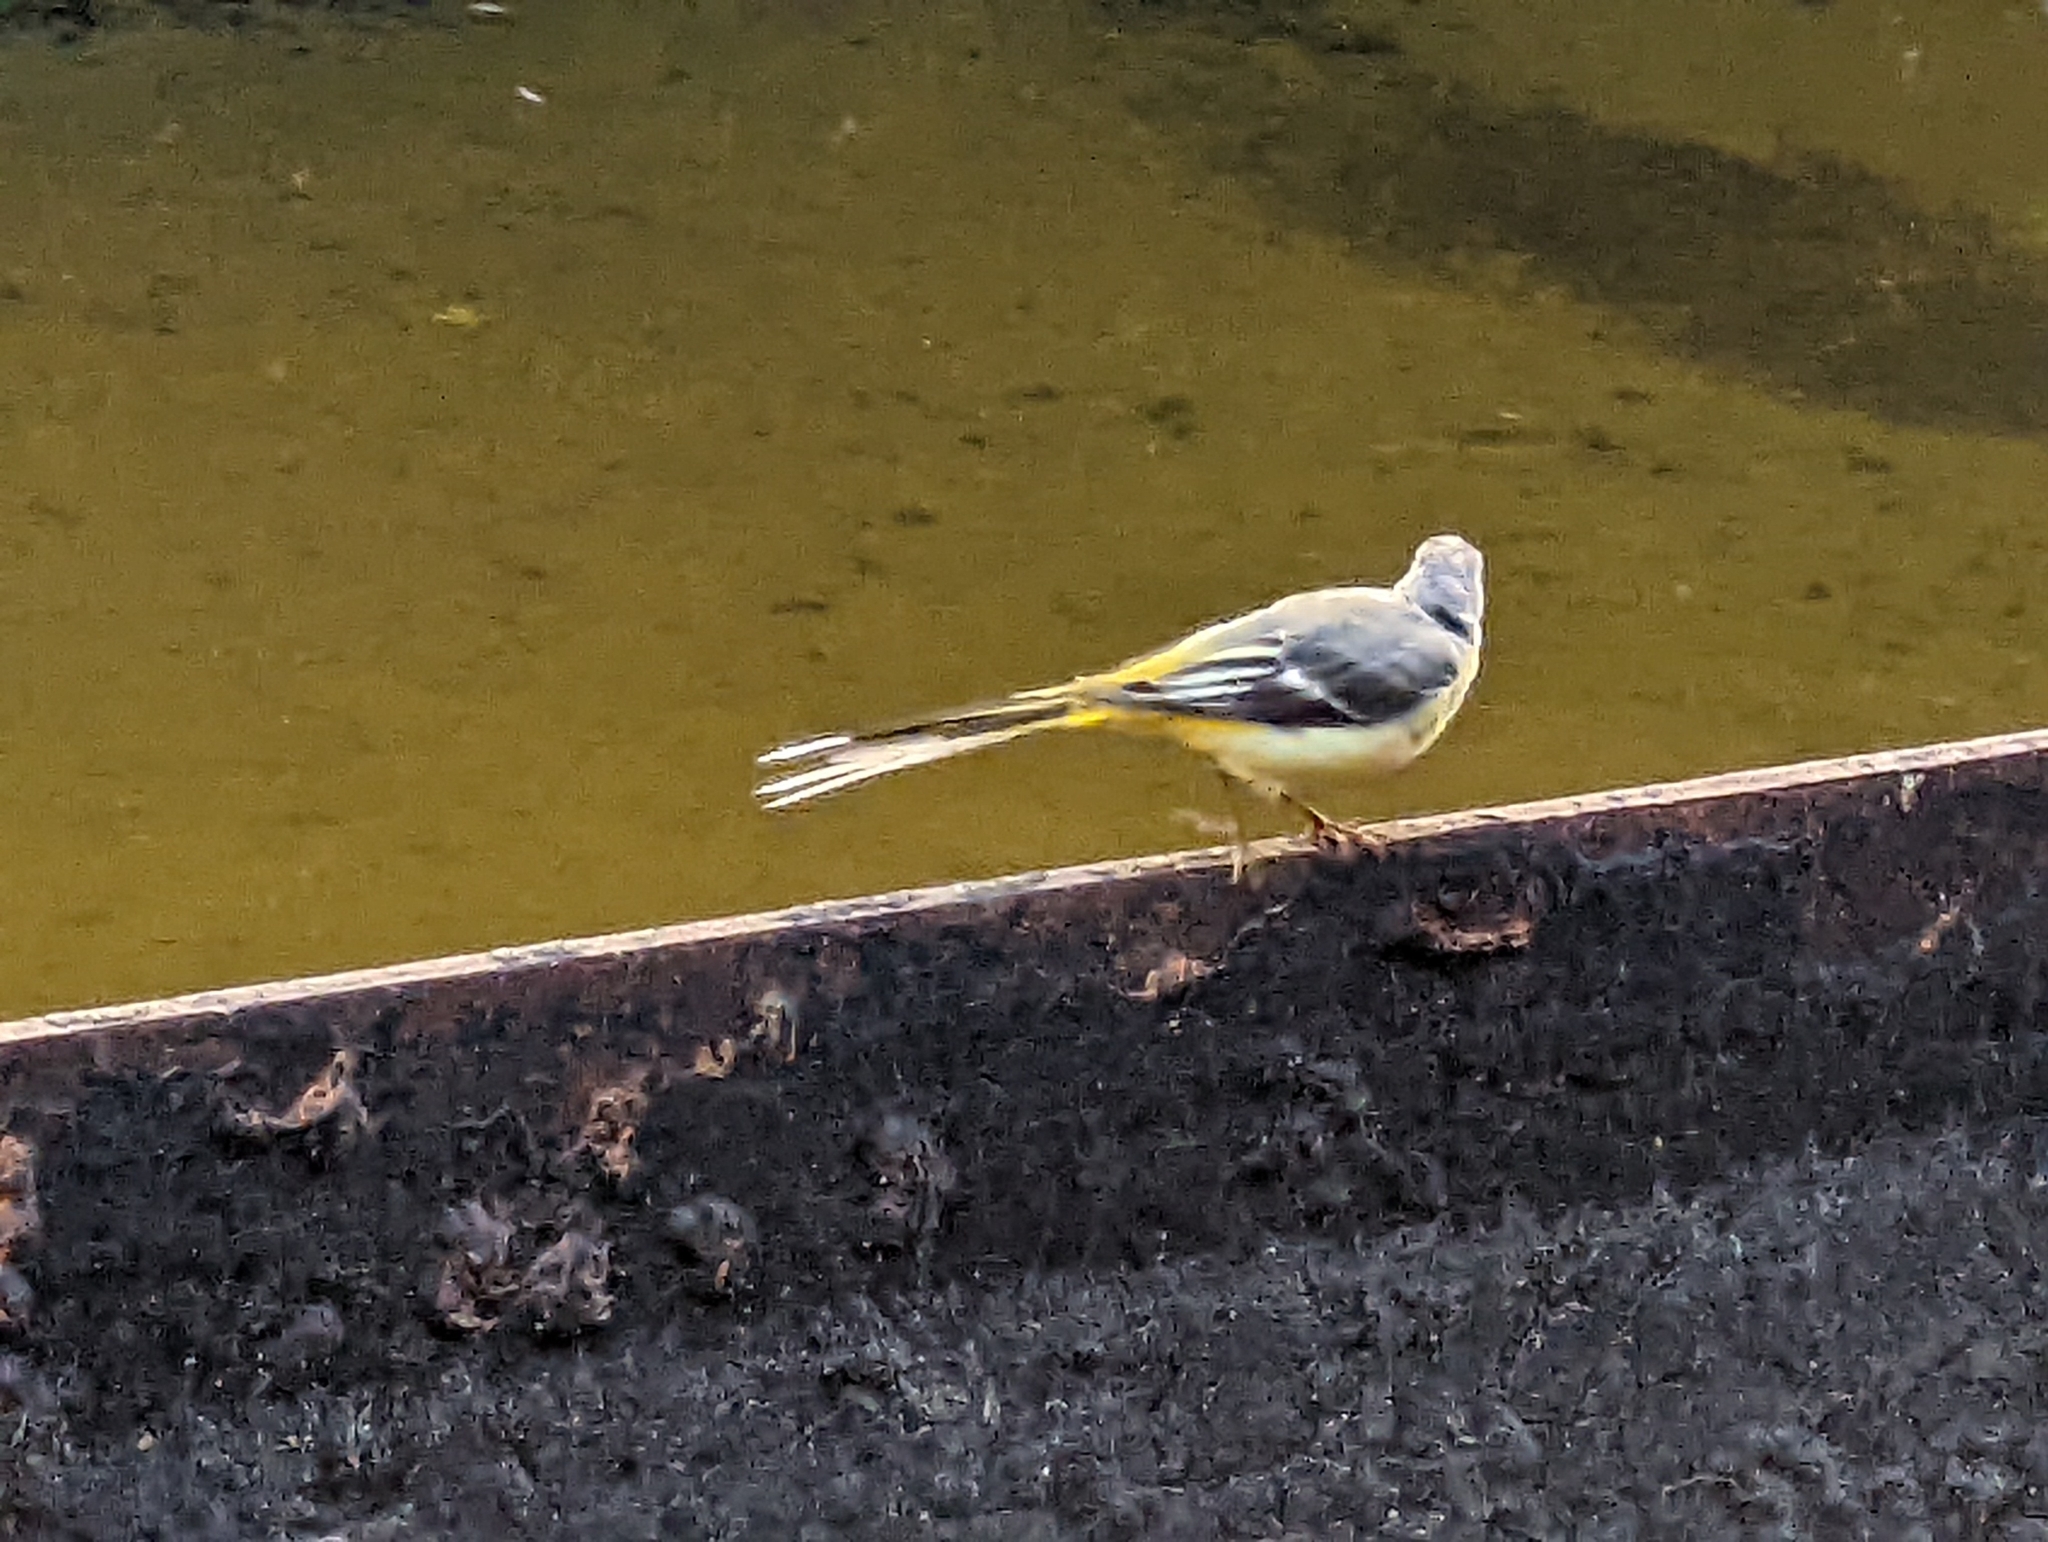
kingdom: Animalia
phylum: Chordata
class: Aves
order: Passeriformes
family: Motacillidae
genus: Motacilla
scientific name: Motacilla cinerea
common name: Grey wagtail
